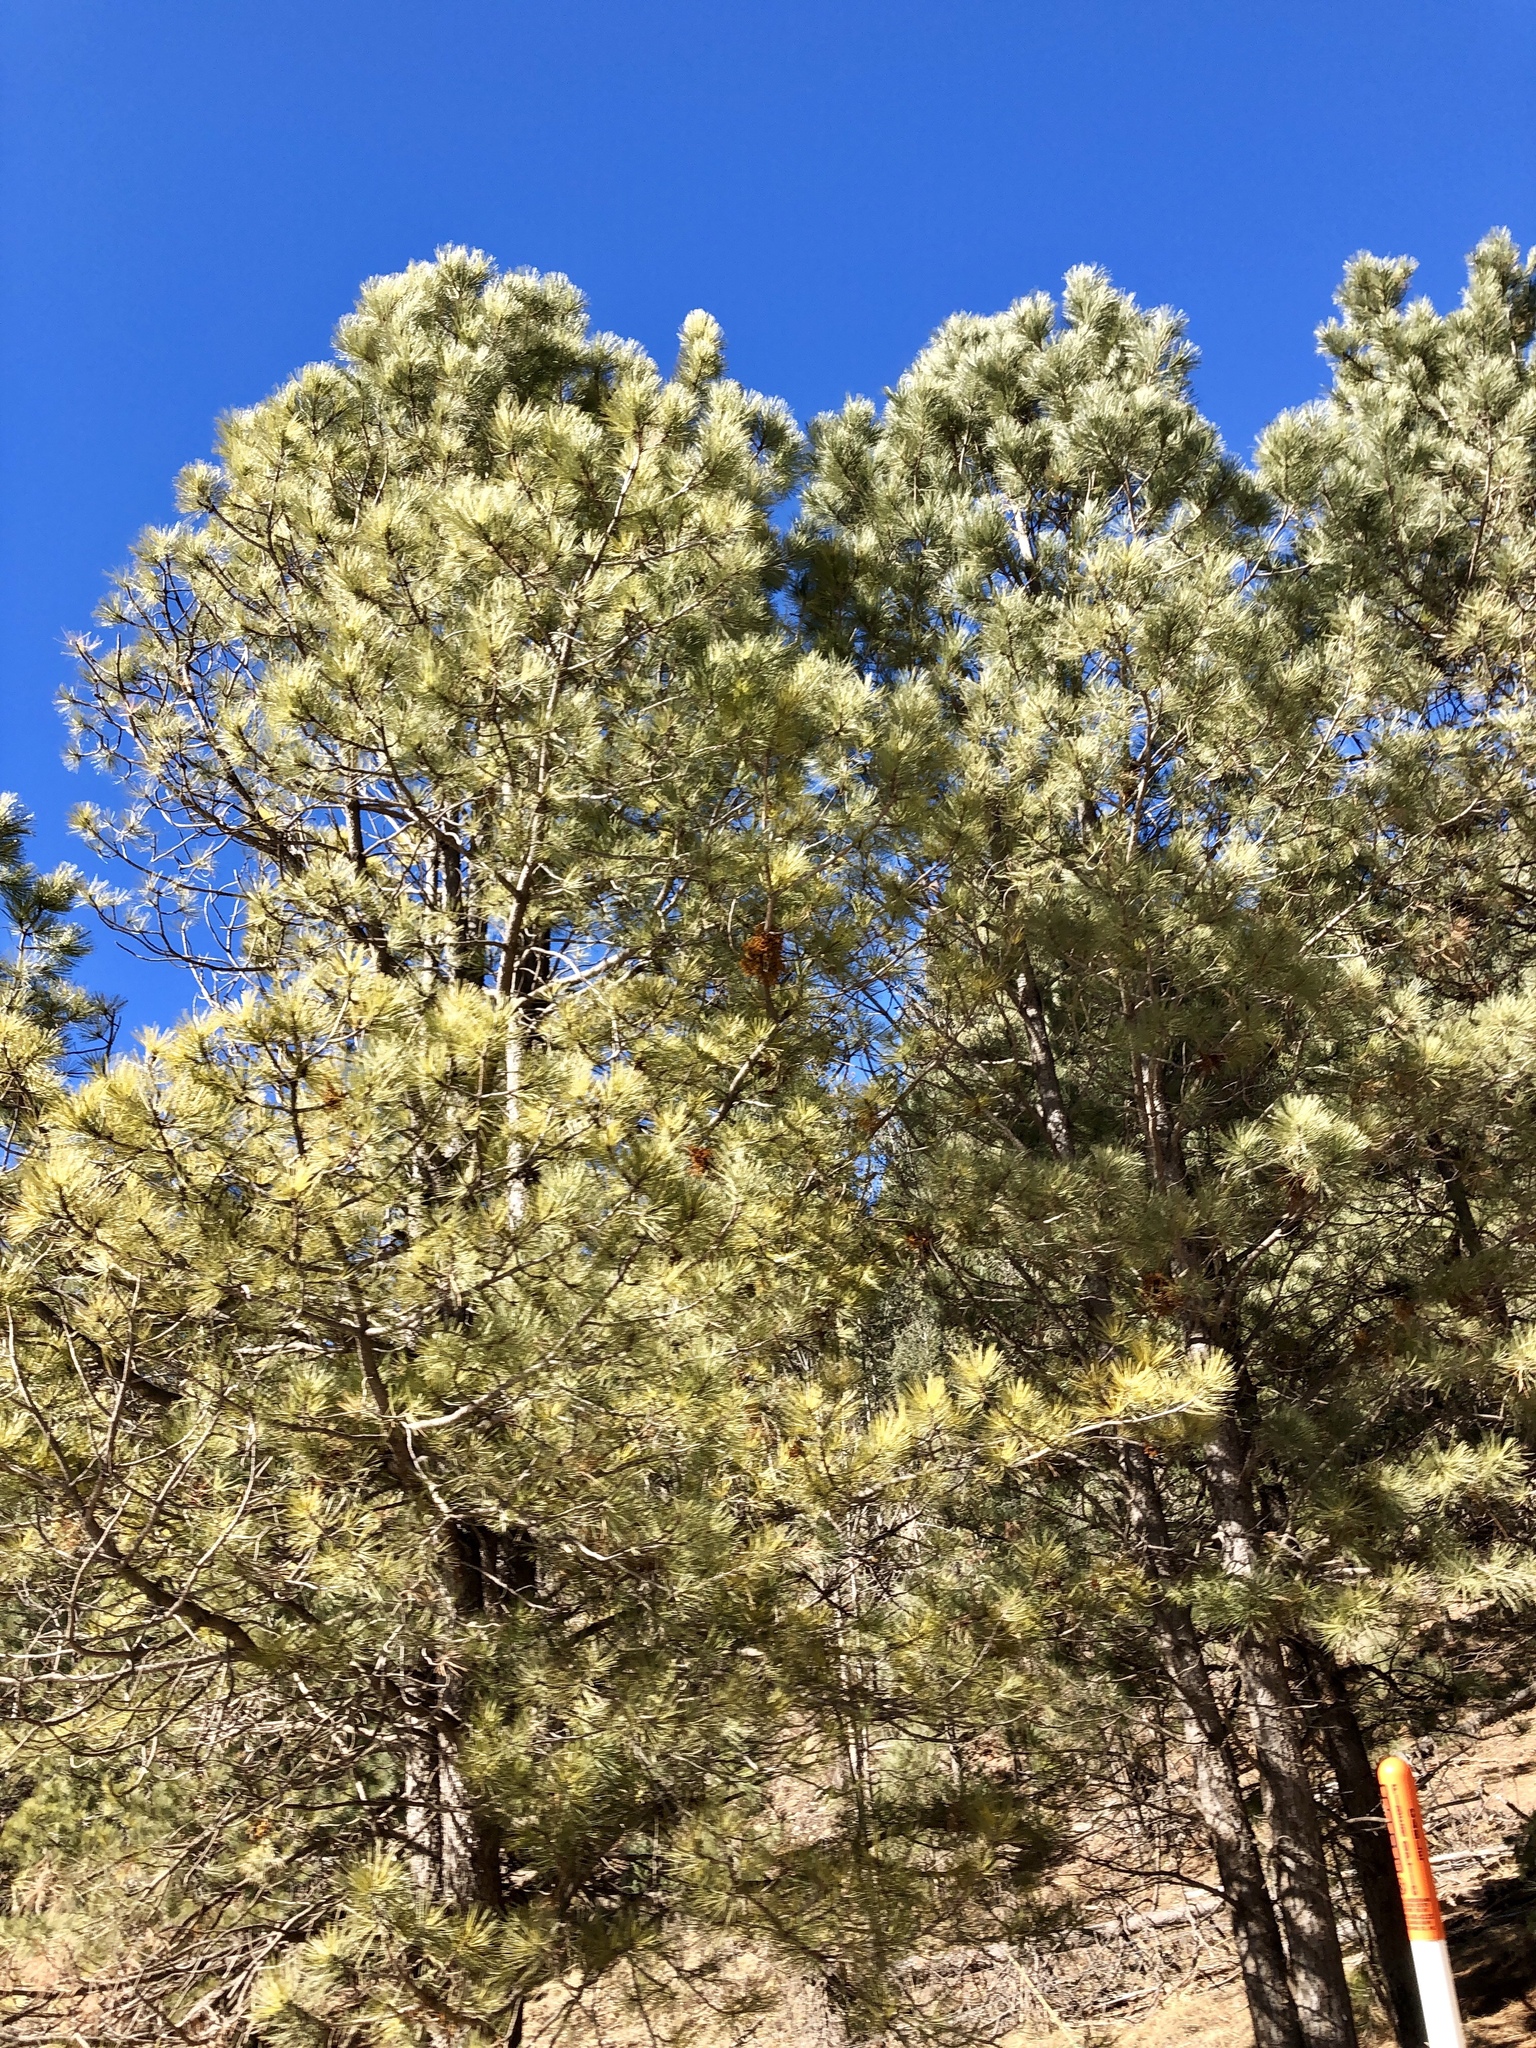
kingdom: Plantae
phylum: Tracheophyta
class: Pinopsida
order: Pinales
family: Pinaceae
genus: Pinus
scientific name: Pinus ponderosa
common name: Western yellow-pine
